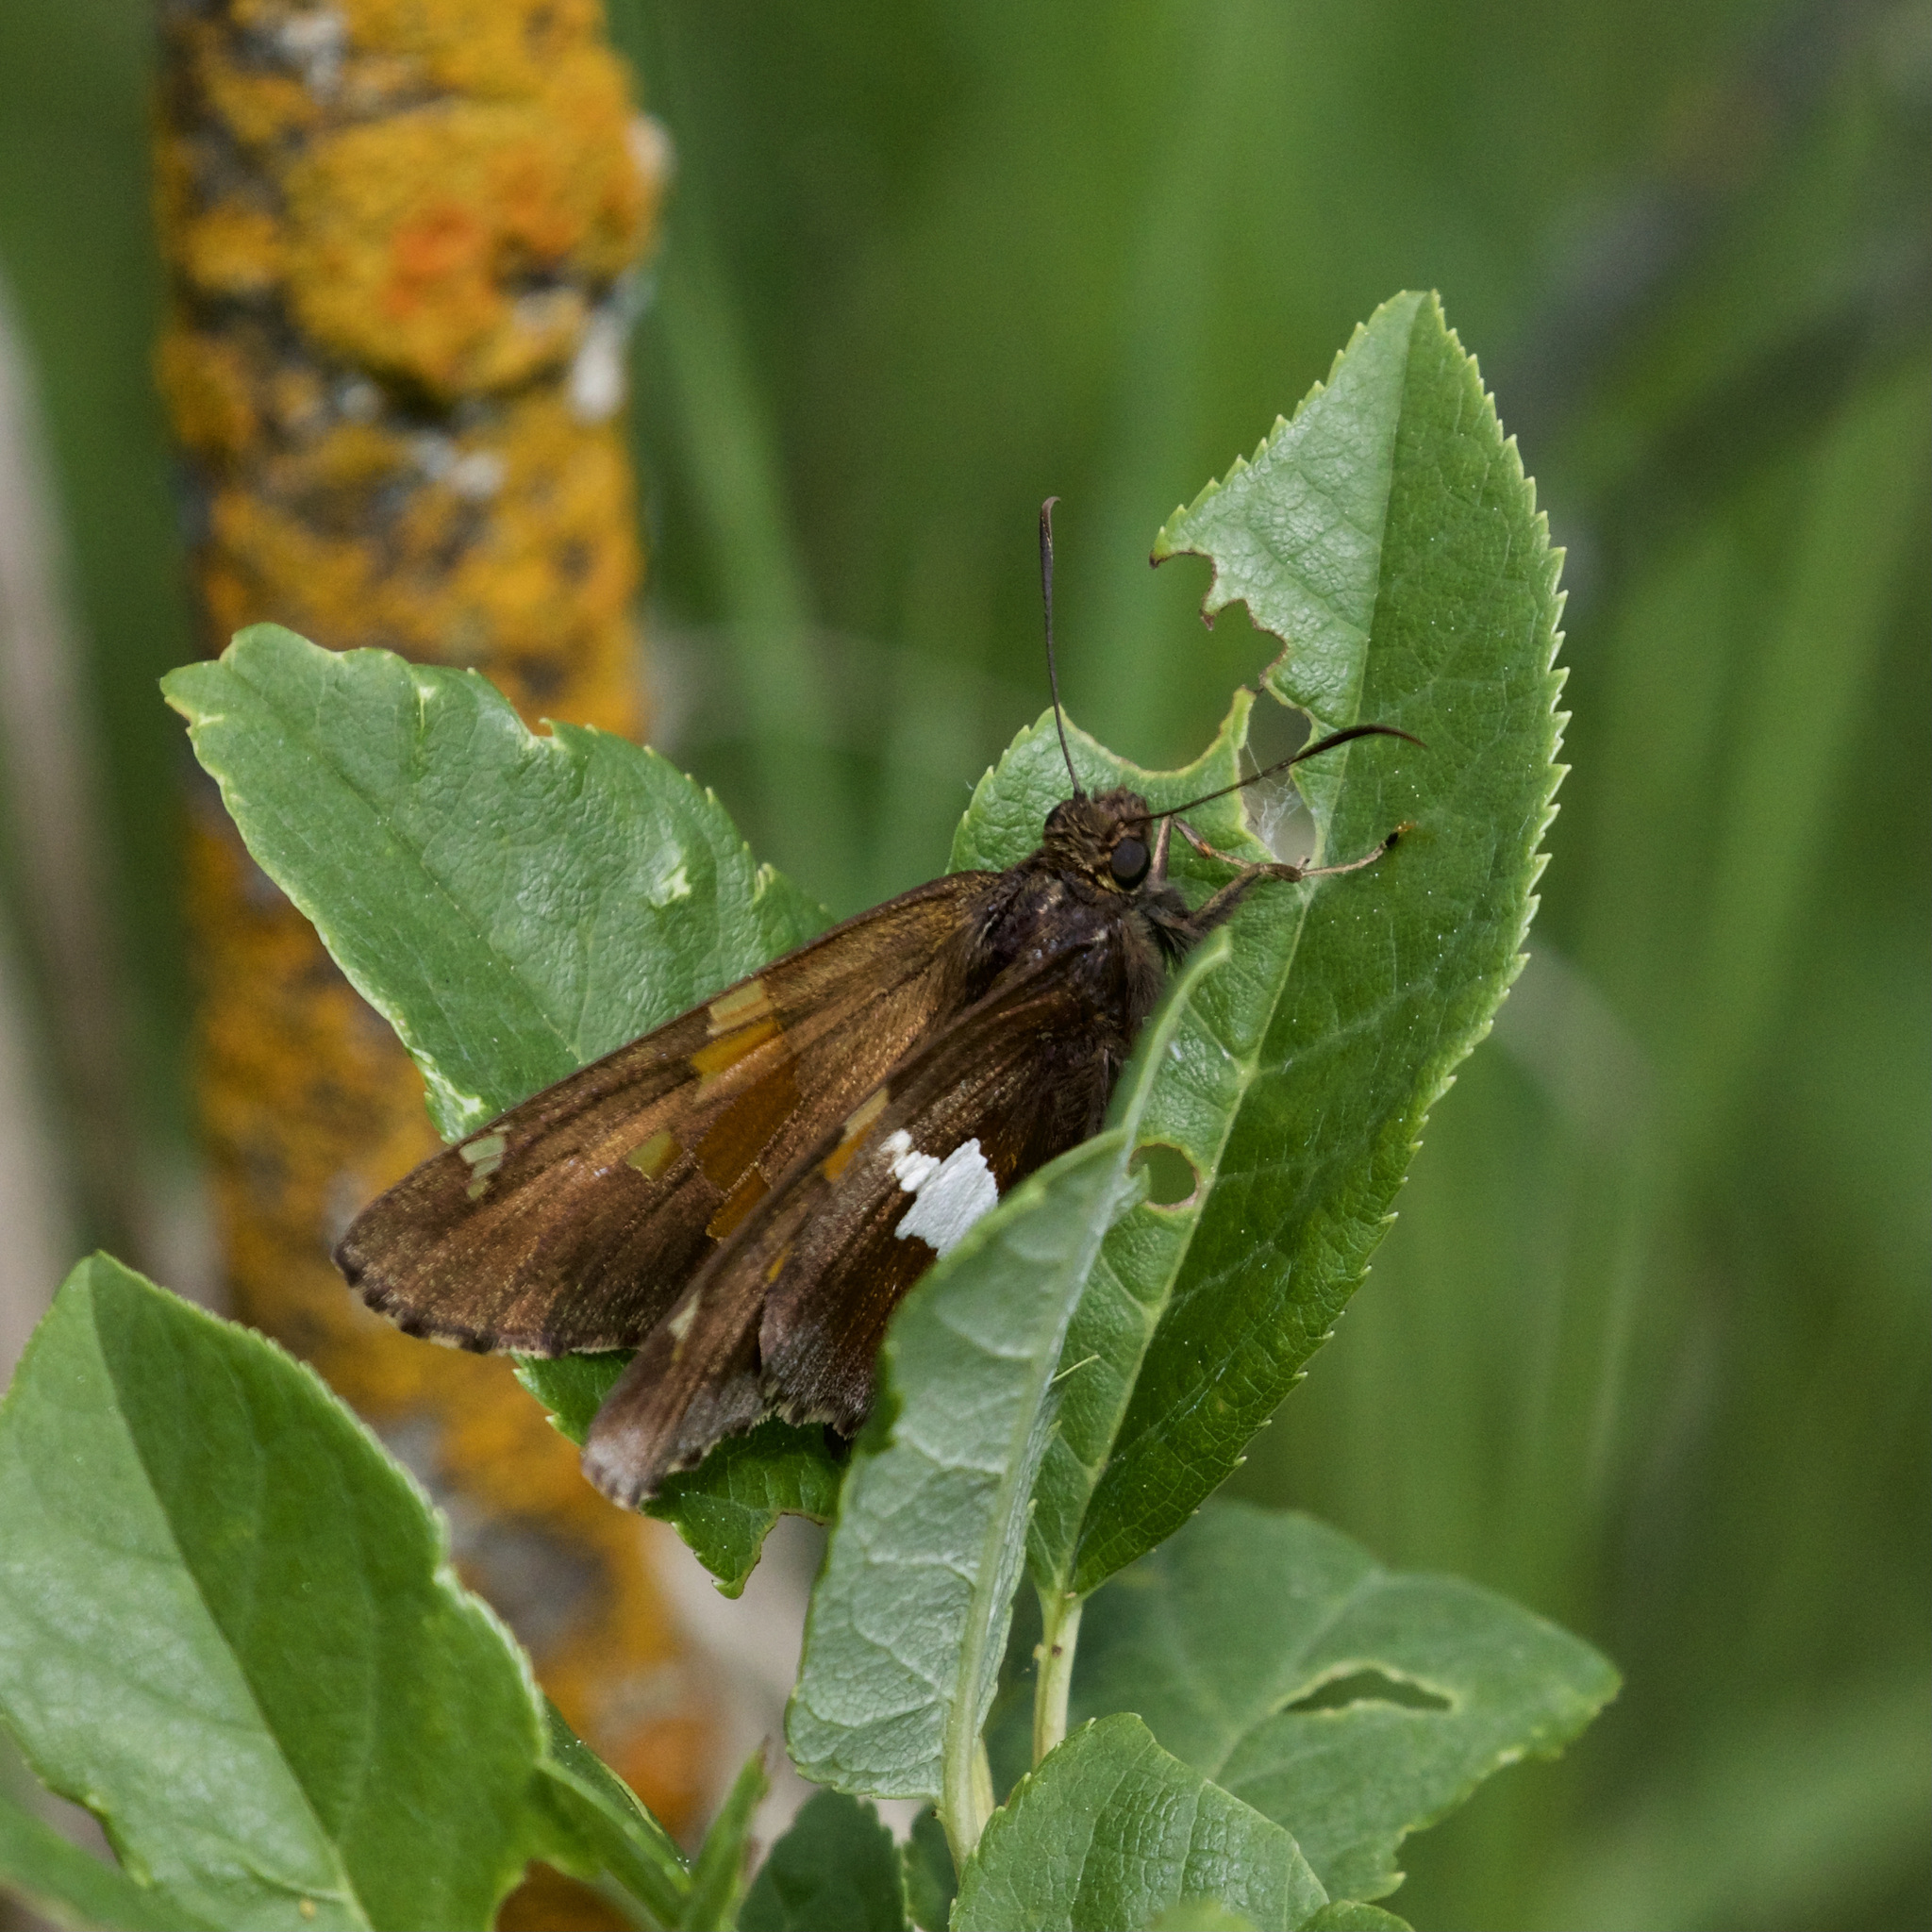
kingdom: Animalia
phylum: Arthropoda
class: Insecta
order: Lepidoptera
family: Hesperiidae
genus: Epargyreus
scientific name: Epargyreus clarus
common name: Silver-spotted skipper
